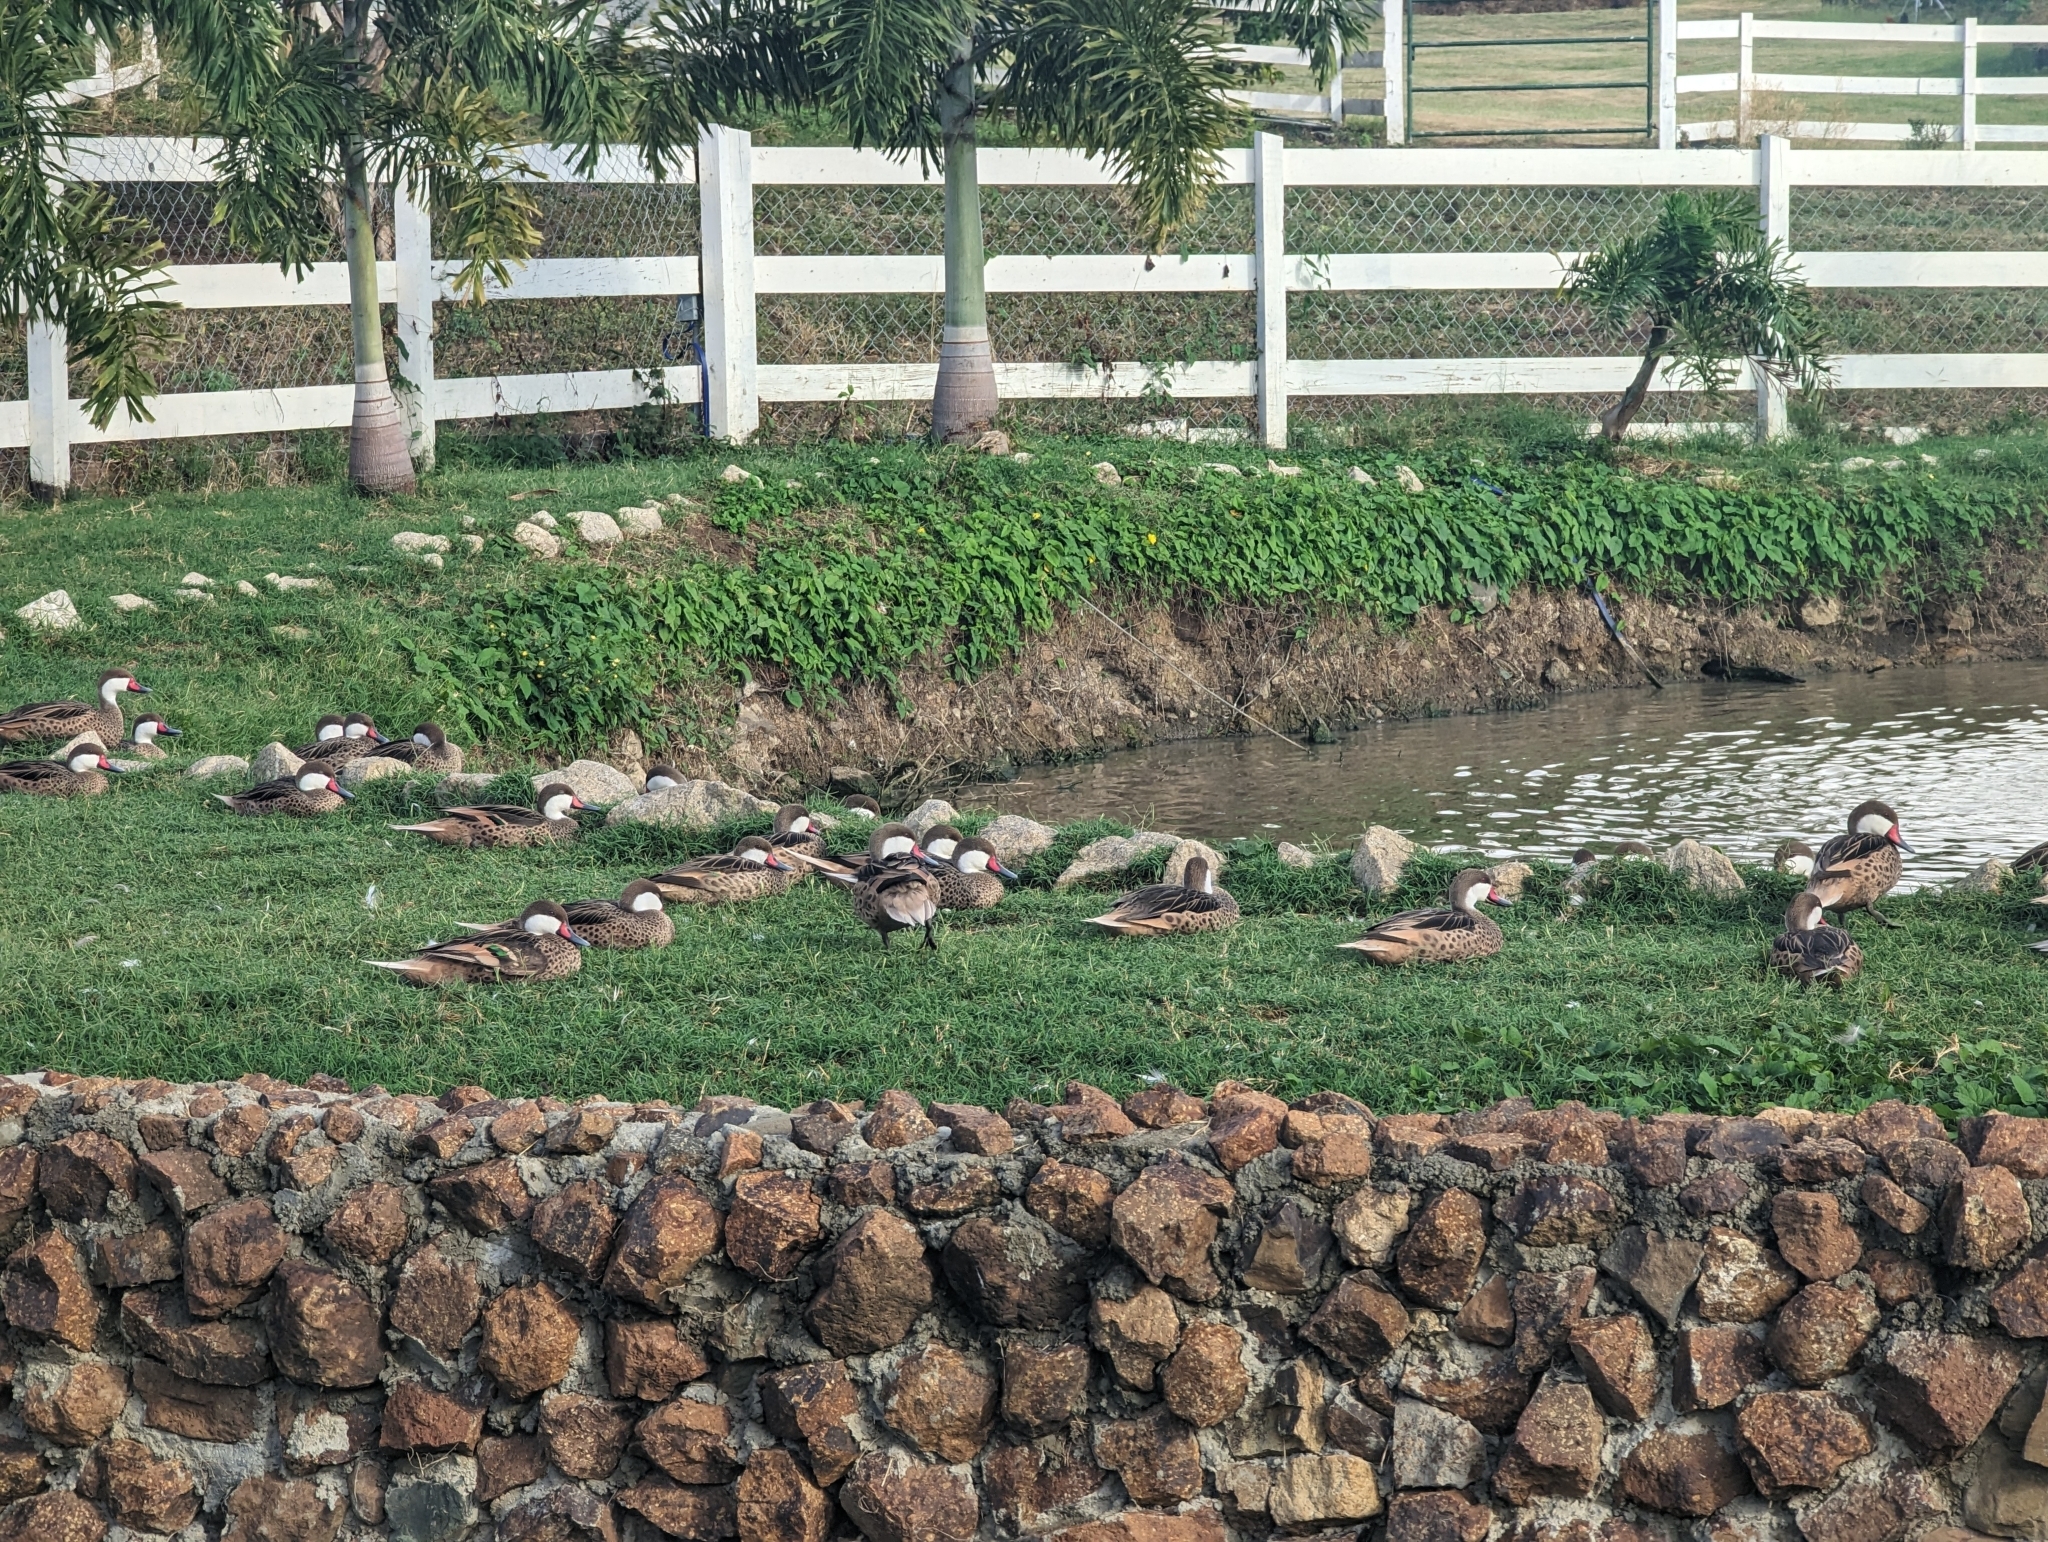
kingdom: Animalia
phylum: Chordata
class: Aves
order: Anseriformes
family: Anatidae
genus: Anas
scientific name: Anas bahamensis
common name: White-cheeked pintail
